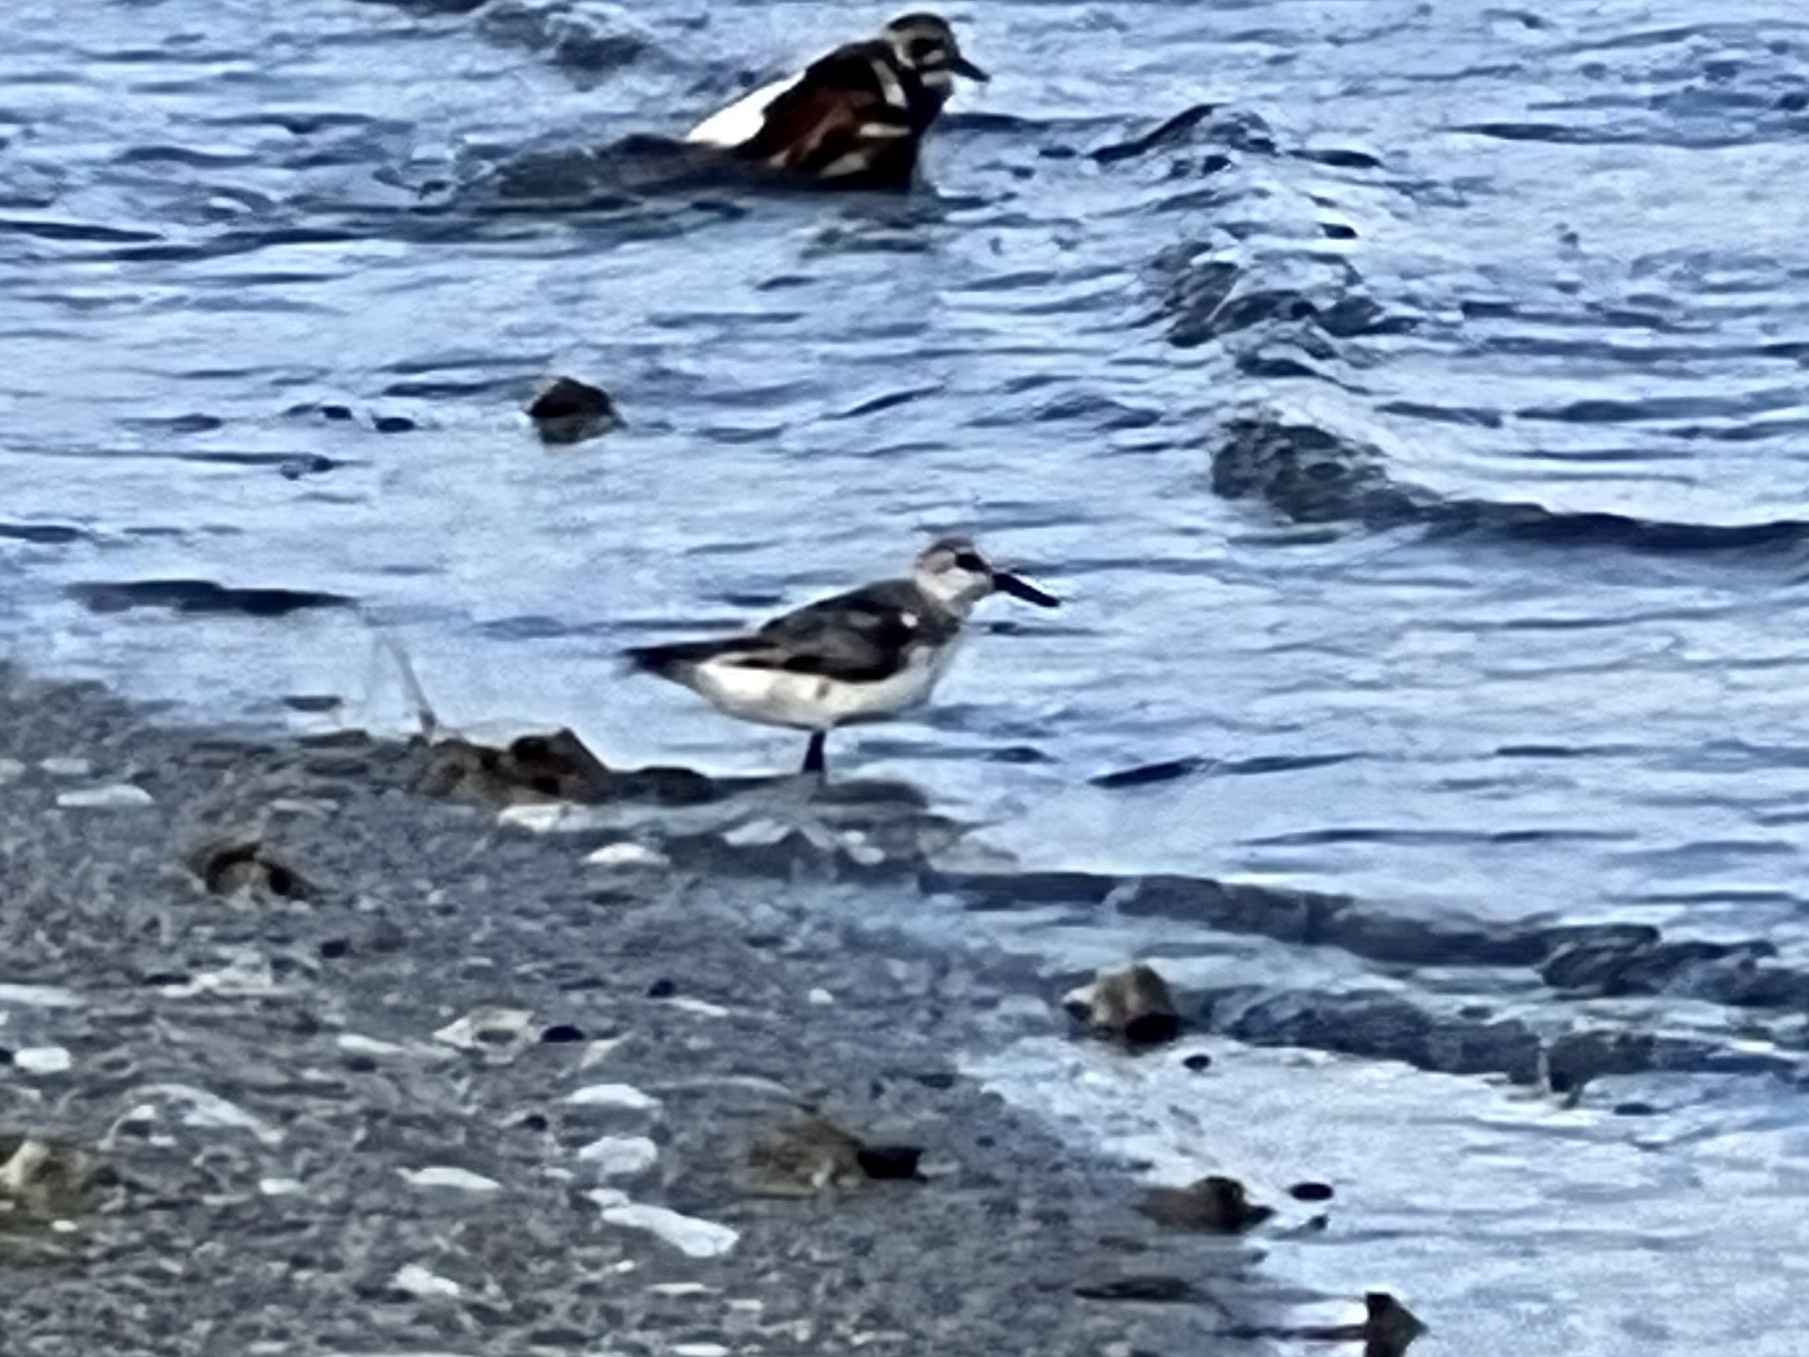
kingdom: Animalia
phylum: Chordata
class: Aves
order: Charadriiformes
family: Scolopacidae
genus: Calidris
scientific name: Calidris alba
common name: Sanderling
